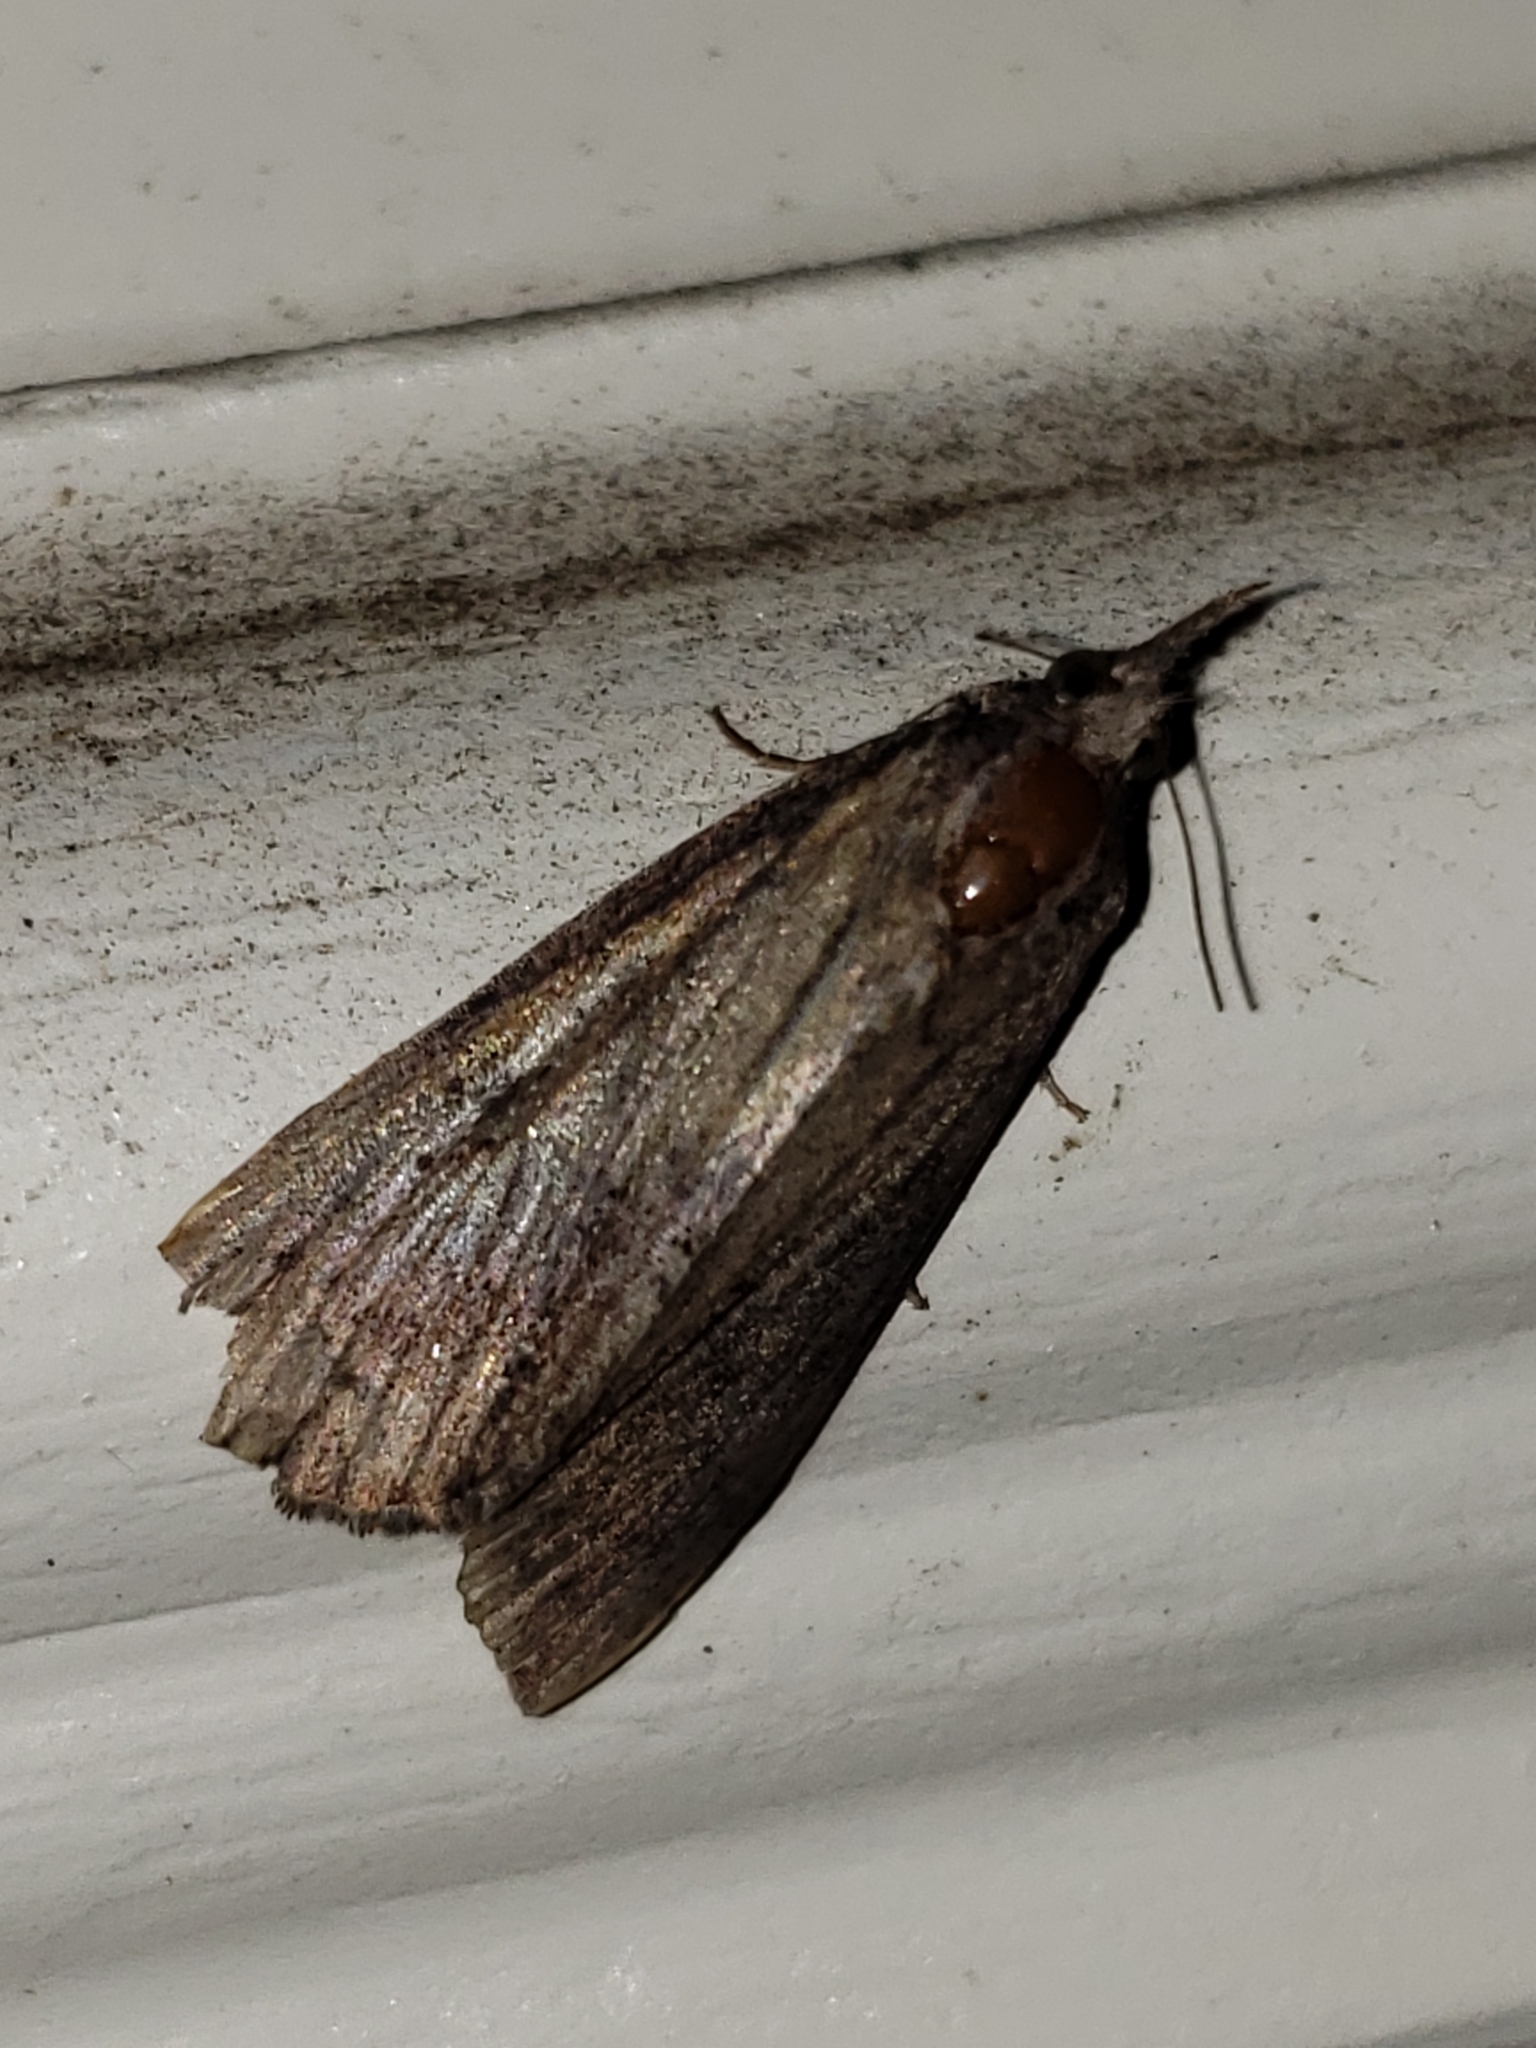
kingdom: Animalia
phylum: Arthropoda
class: Insecta
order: Lepidoptera
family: Erebidae
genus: Hypena
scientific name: Hypena scabra
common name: Green cloverworm
